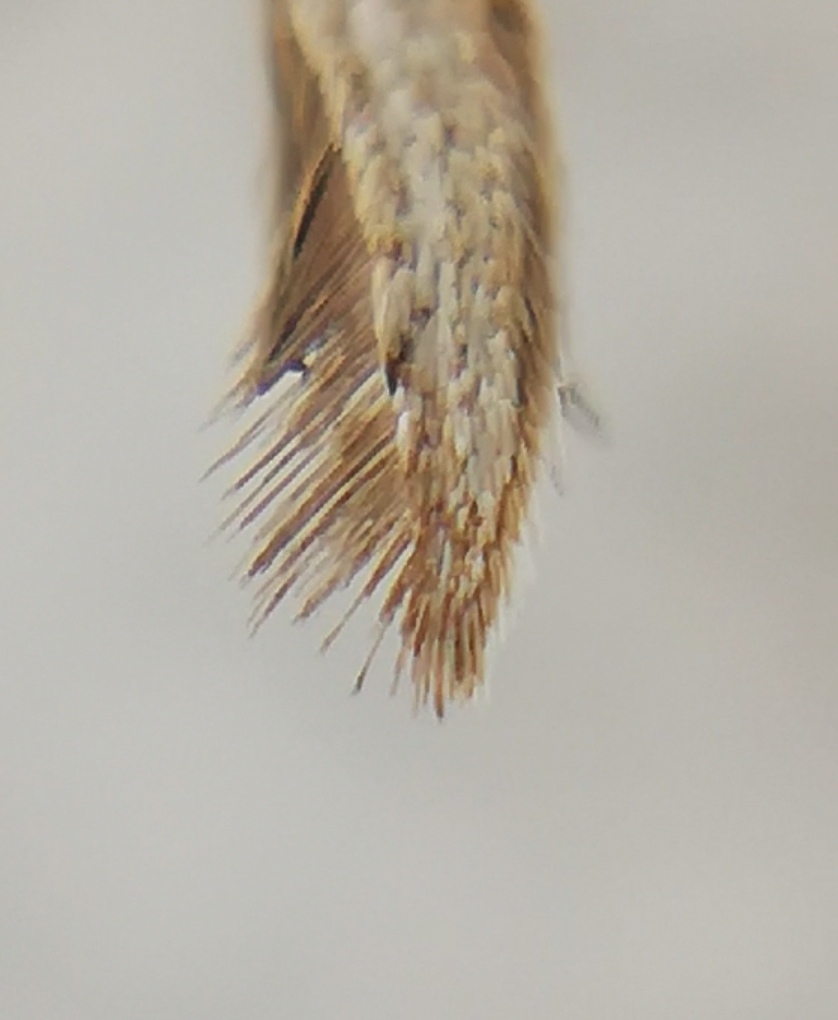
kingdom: Animalia
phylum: Arthropoda
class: Insecta
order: Lepidoptera
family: Pterophoridae
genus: Emmelina
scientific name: Emmelina monodactyla
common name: Common plume
